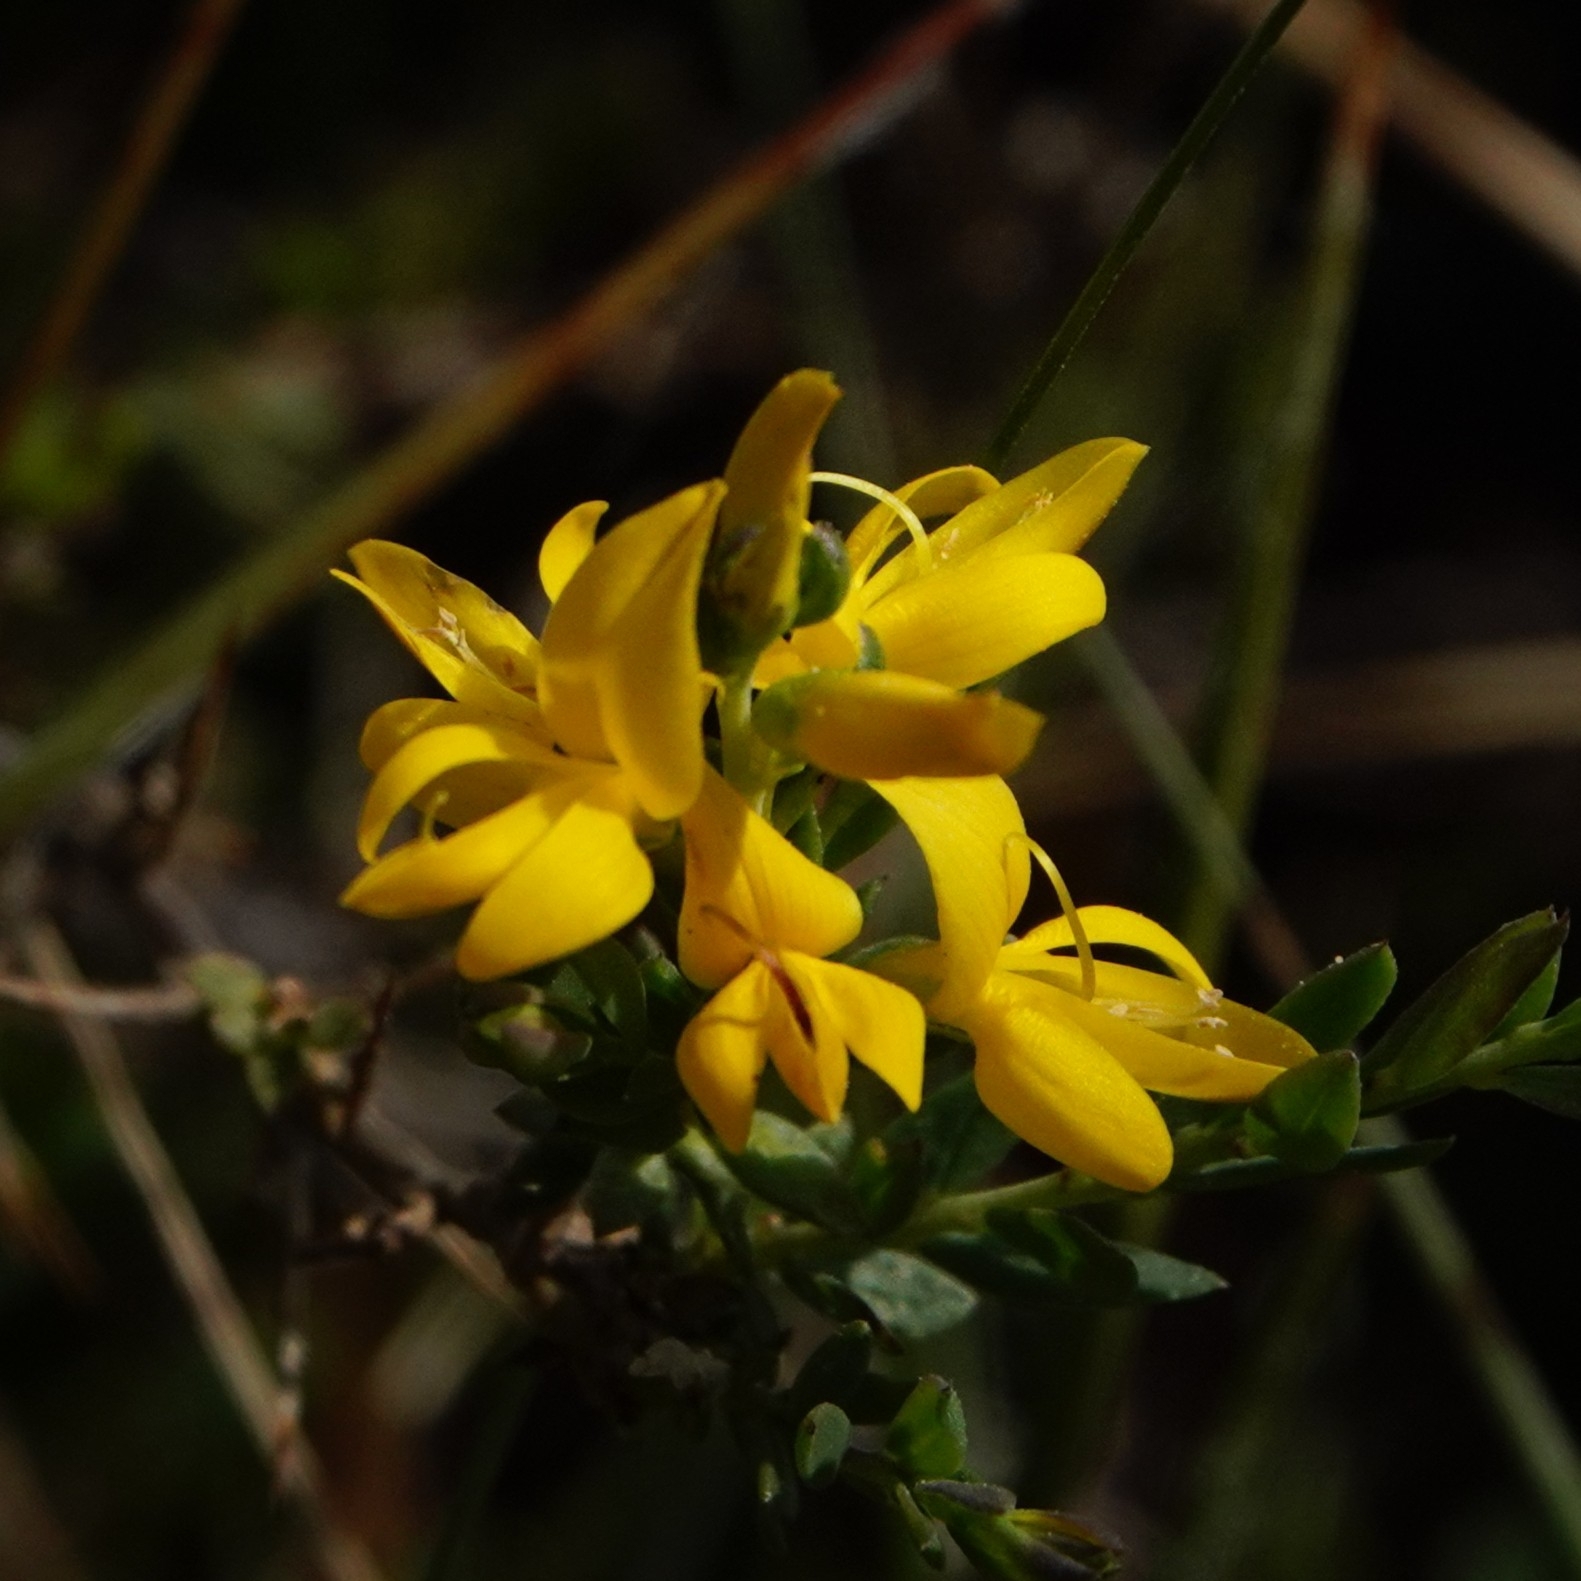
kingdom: Plantae
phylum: Tracheophyta
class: Magnoliopsida
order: Fabales
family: Fabaceae
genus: Genista
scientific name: Genista anglica
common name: Petty whin
